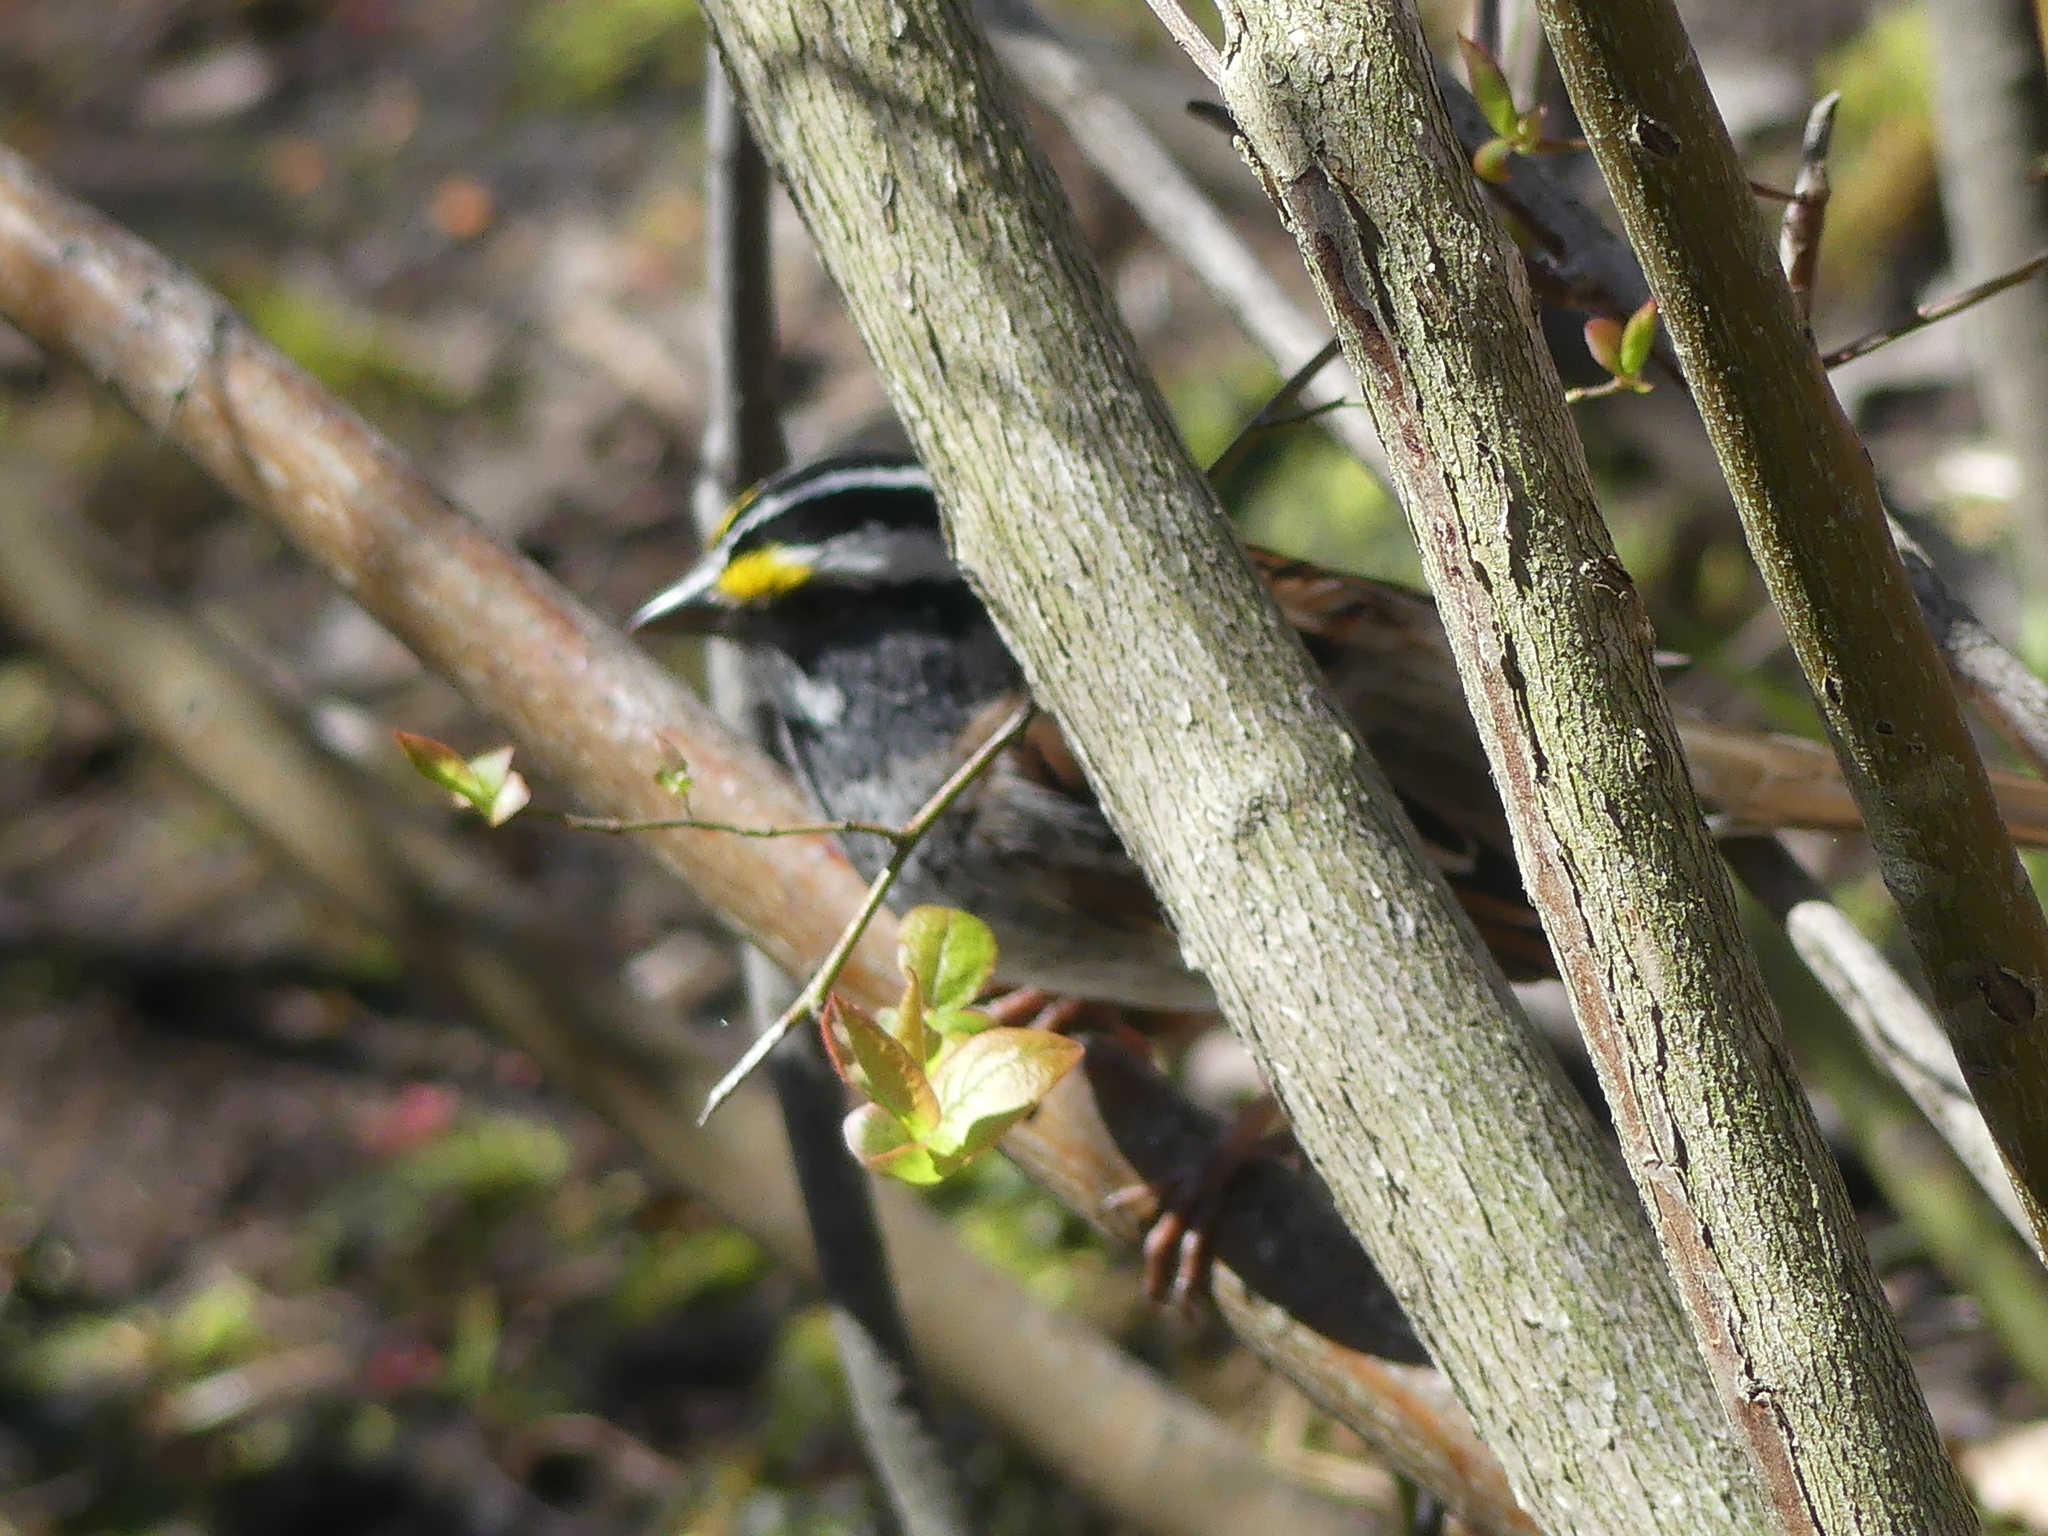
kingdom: Animalia
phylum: Chordata
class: Aves
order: Passeriformes
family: Passerellidae
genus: Zonotrichia
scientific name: Zonotrichia albicollis
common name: White-throated sparrow
